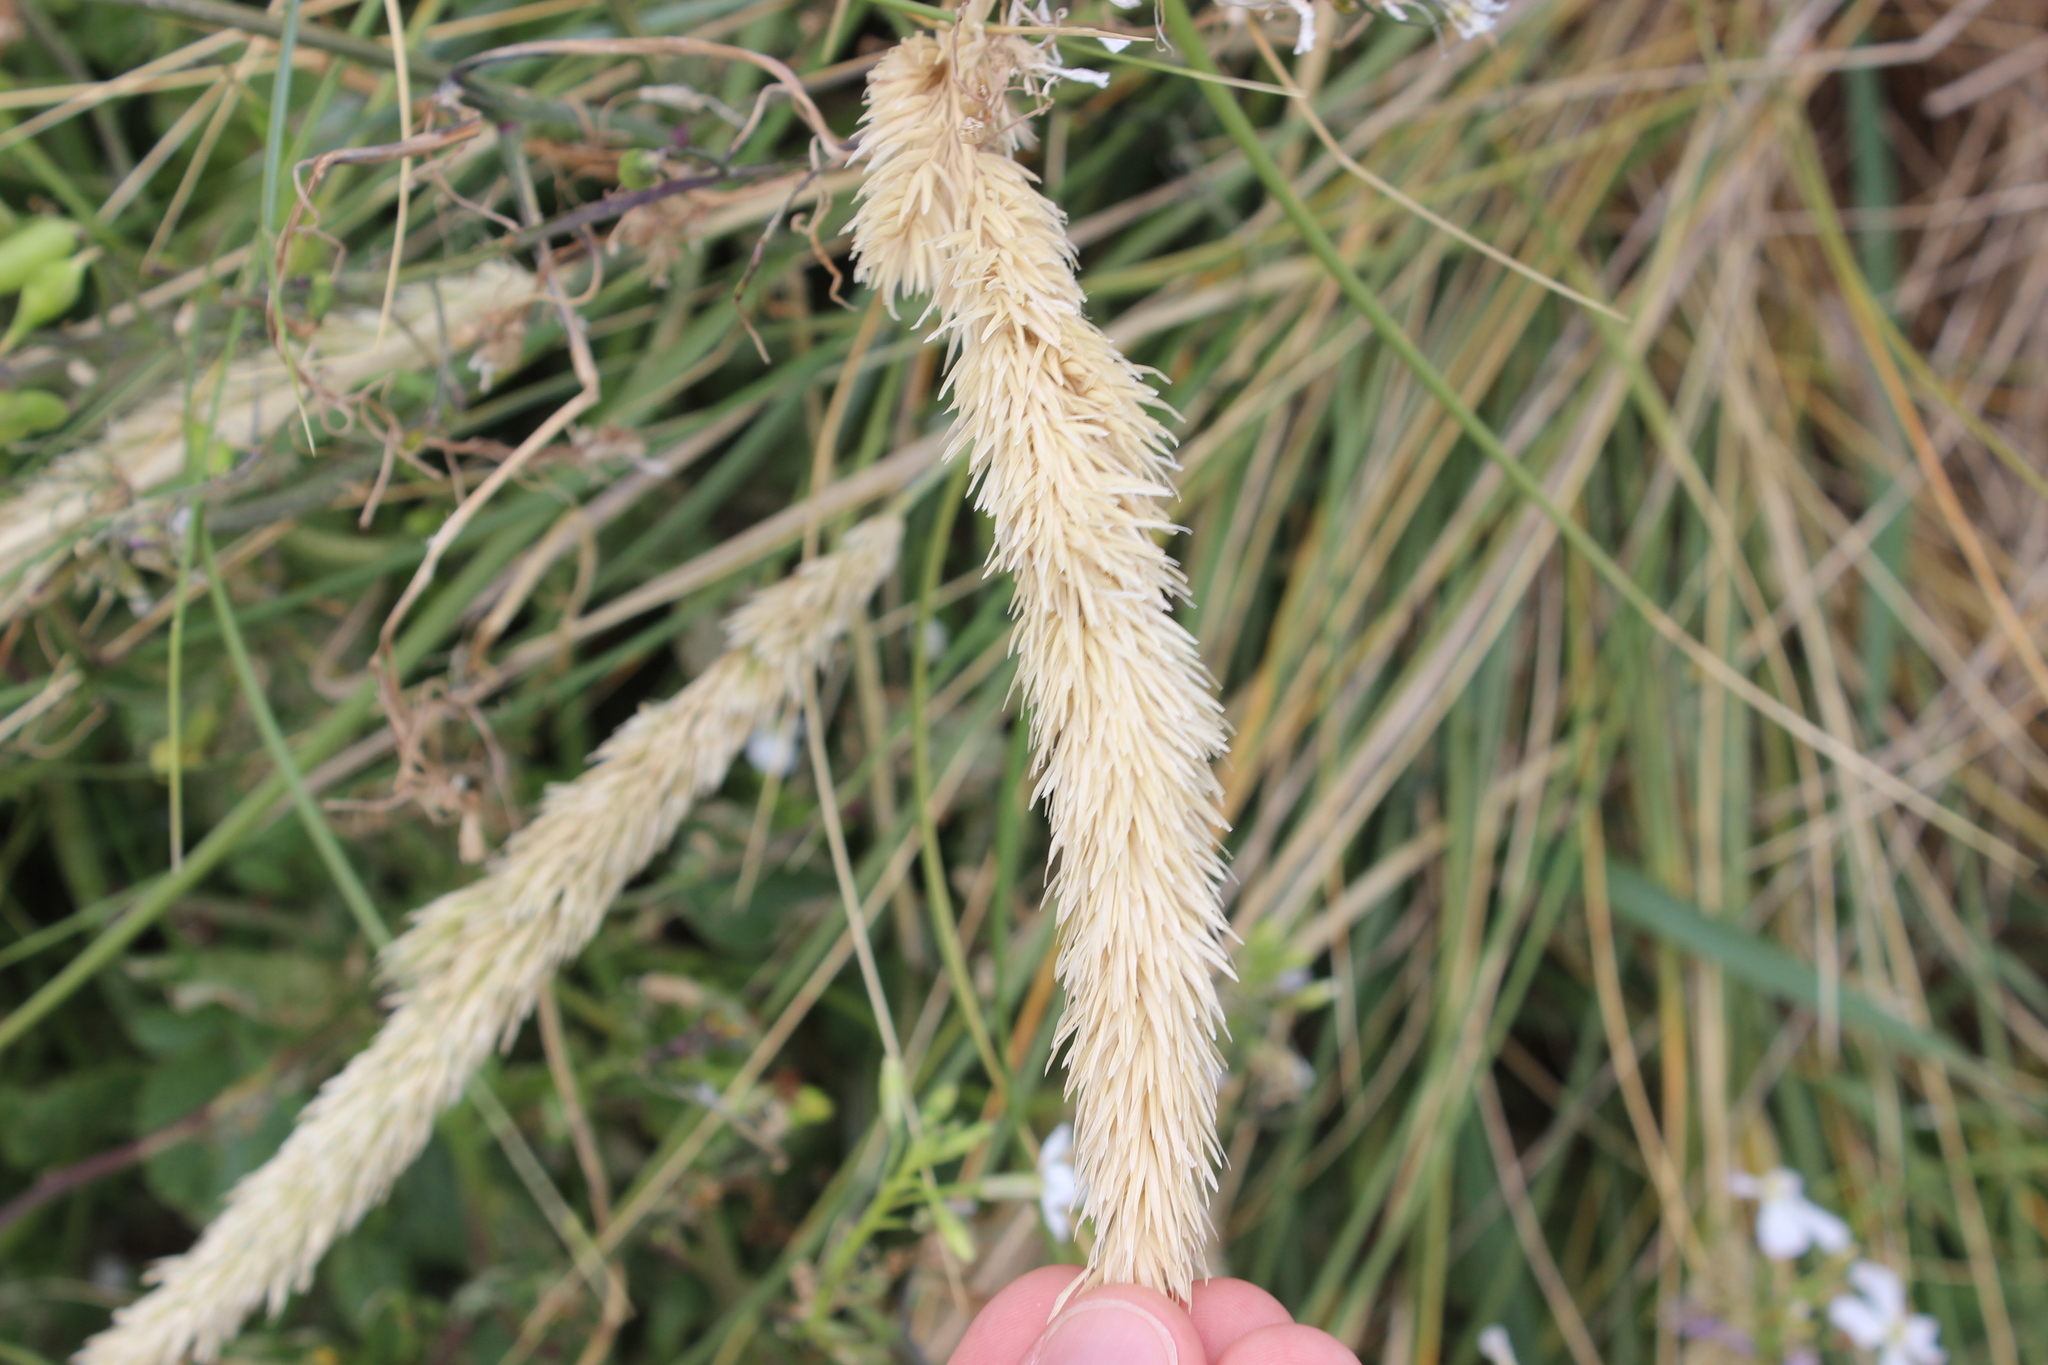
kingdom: Plantae
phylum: Tracheophyta
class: Liliopsida
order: Poales
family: Poaceae
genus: Calamagrostis
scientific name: Calamagrostis arenaria
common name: European beachgrass
